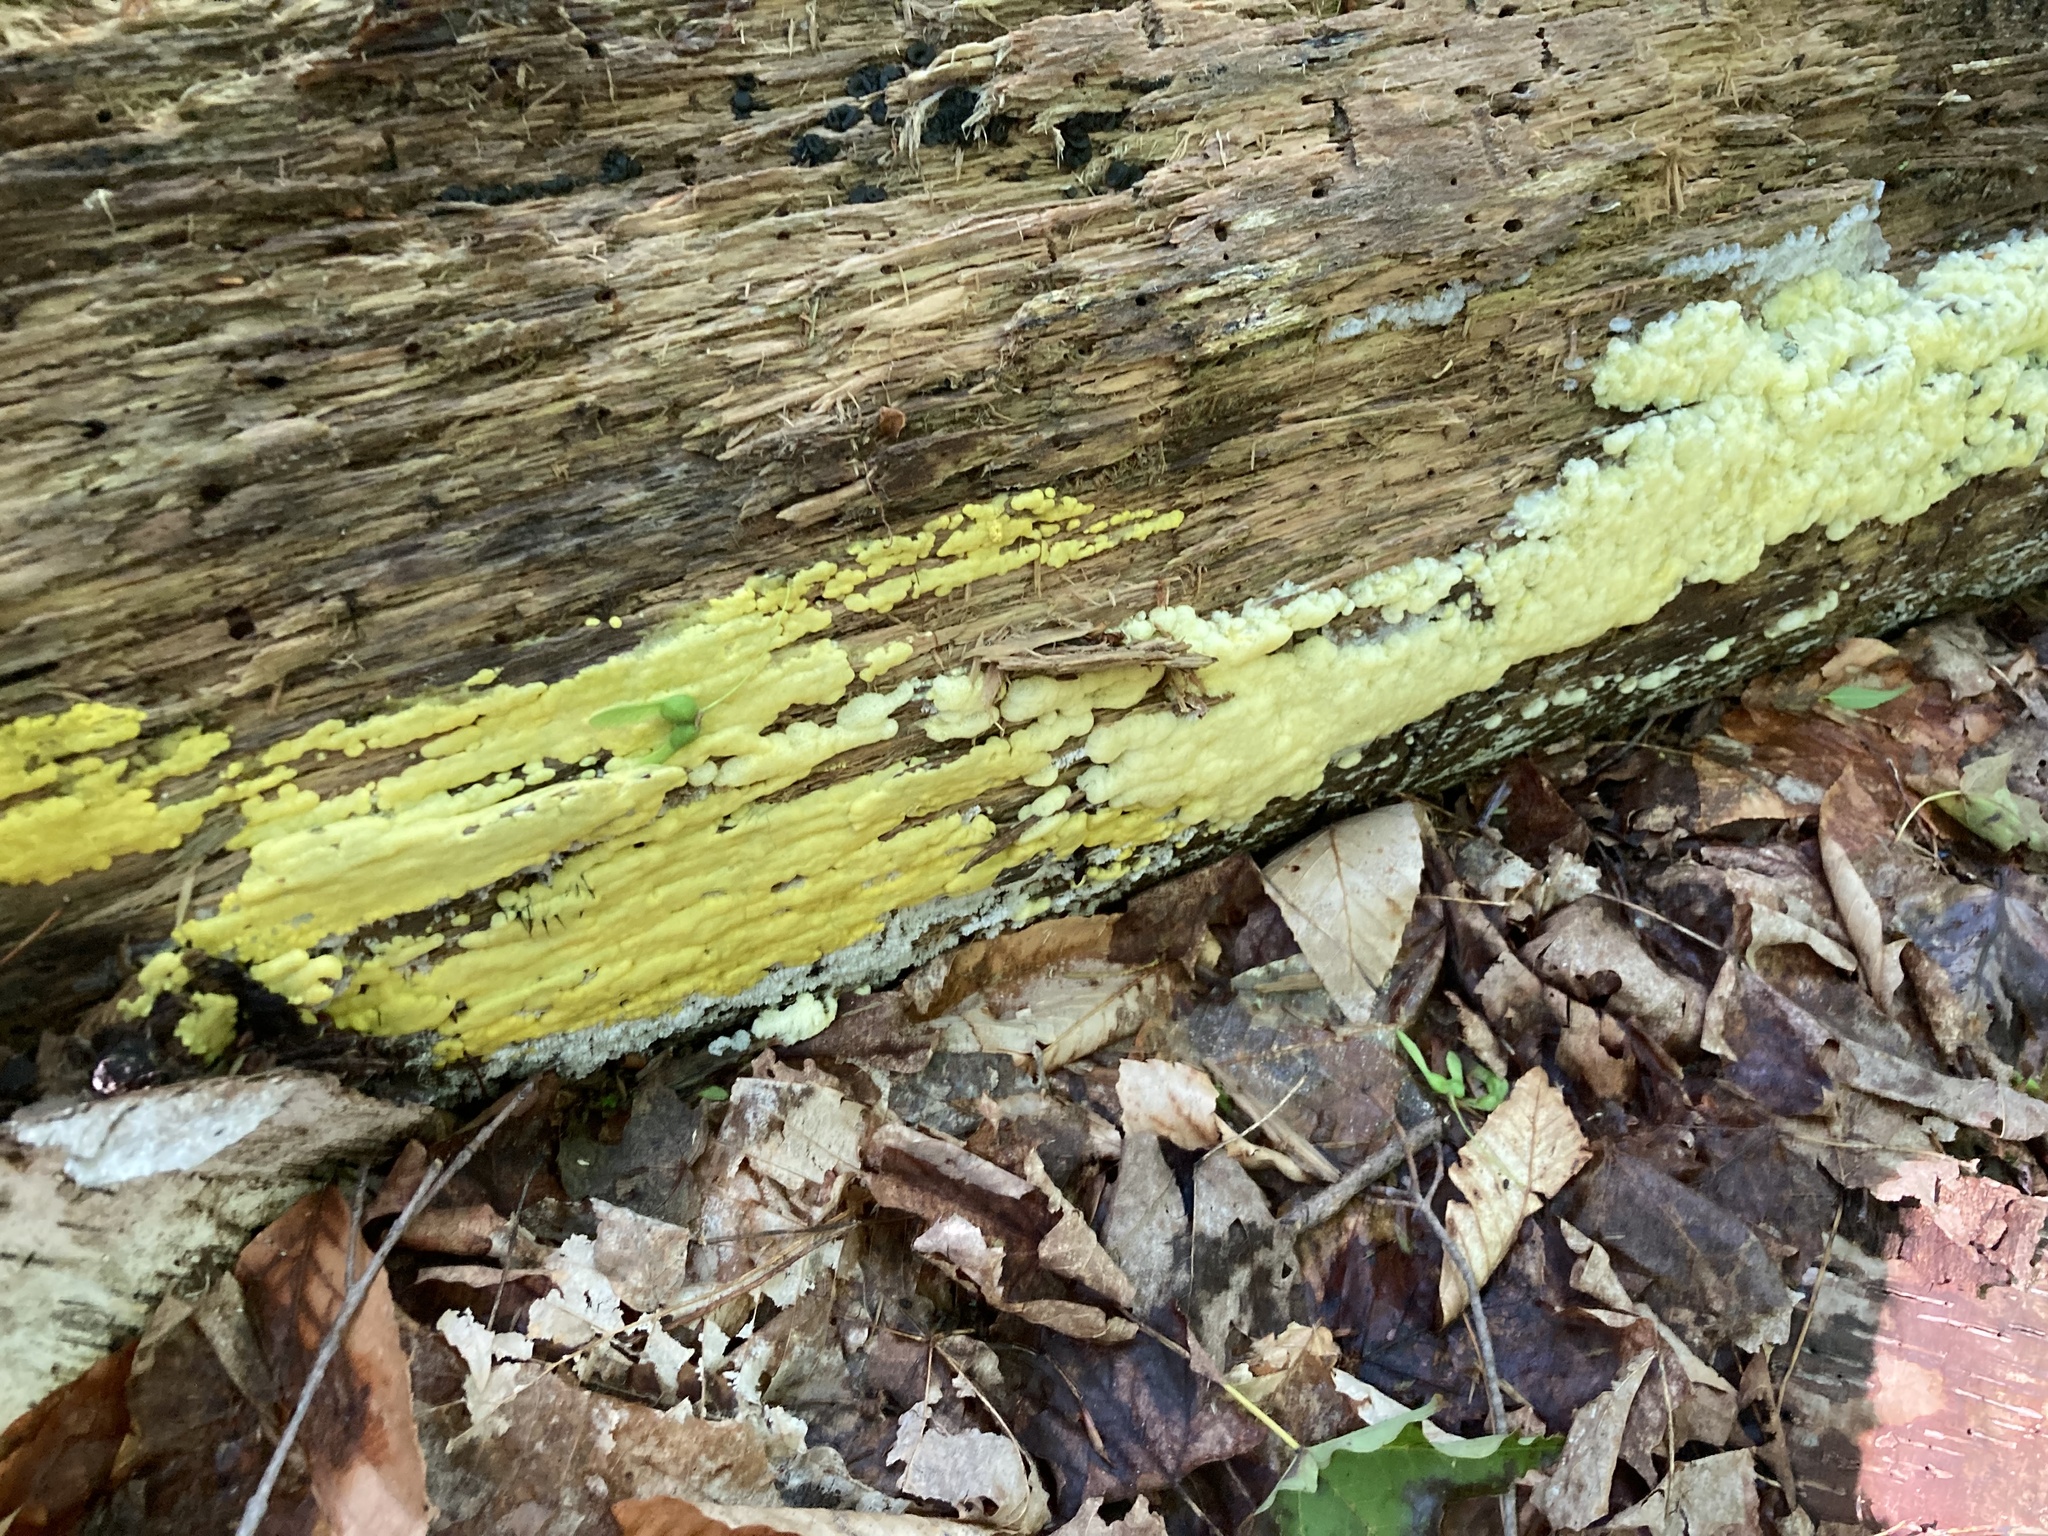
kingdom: Protozoa
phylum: Mycetozoa
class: Protosteliomycetes
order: Ceratiomyxales
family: Ceratiomyxaceae
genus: Ceratiomyxa
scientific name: Ceratiomyxa fruticulosa
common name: Honeycomb coral slime mold
